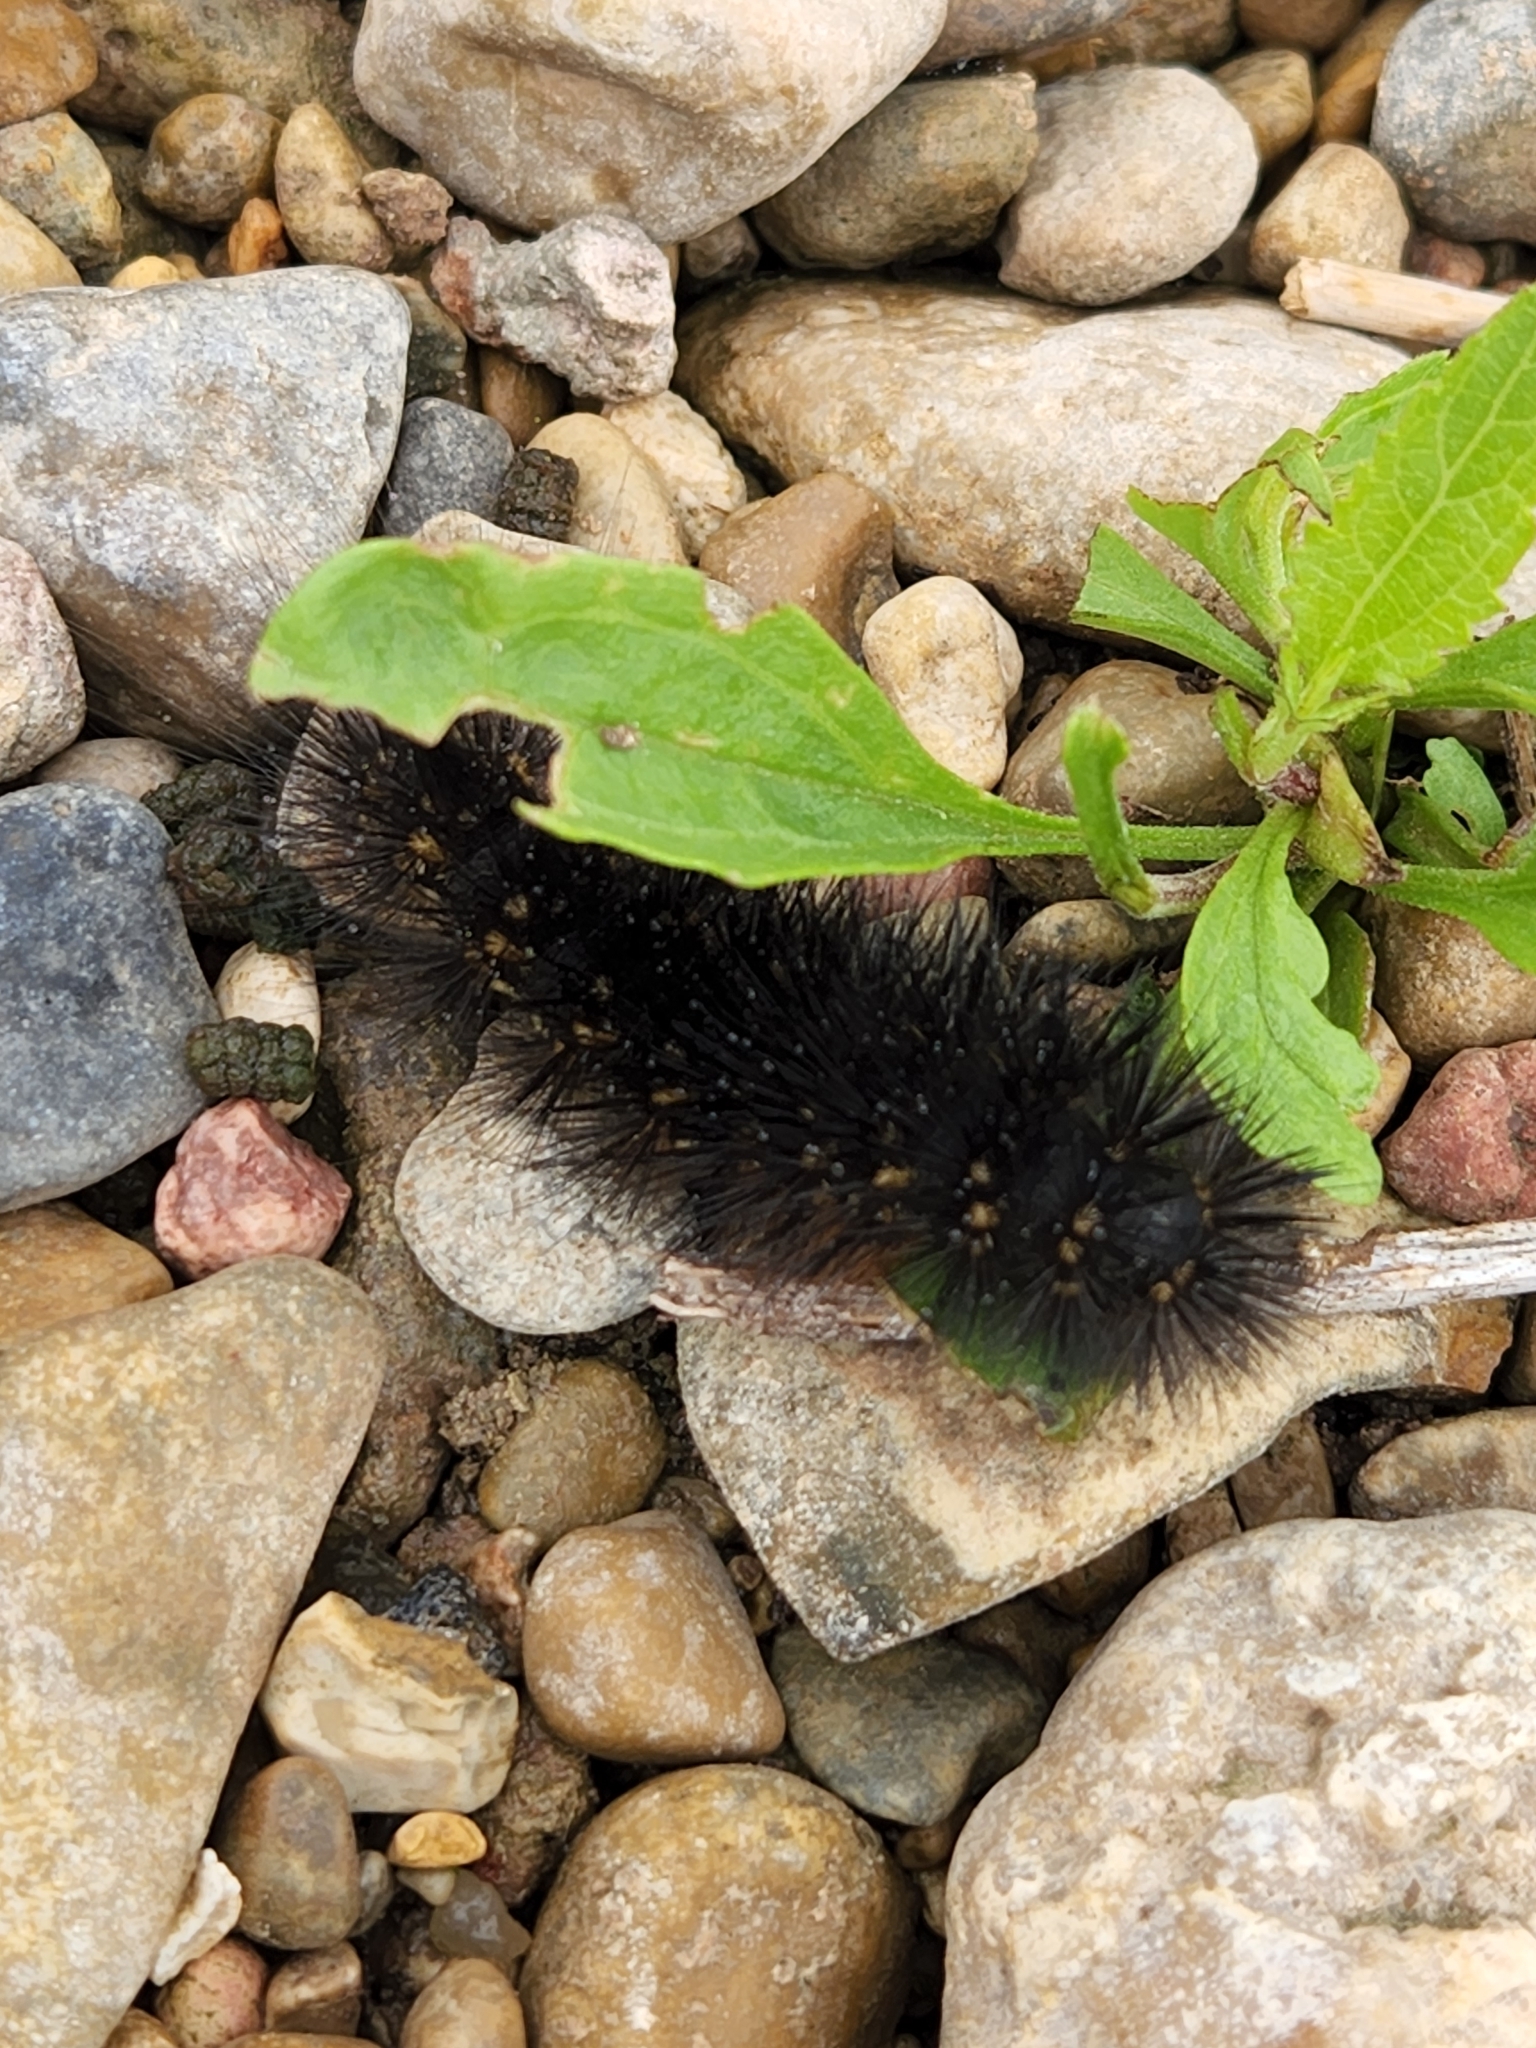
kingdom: Animalia
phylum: Arthropoda
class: Insecta
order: Lepidoptera
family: Erebidae
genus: Estigmene
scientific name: Estigmene acrea
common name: Salt marsh moth
